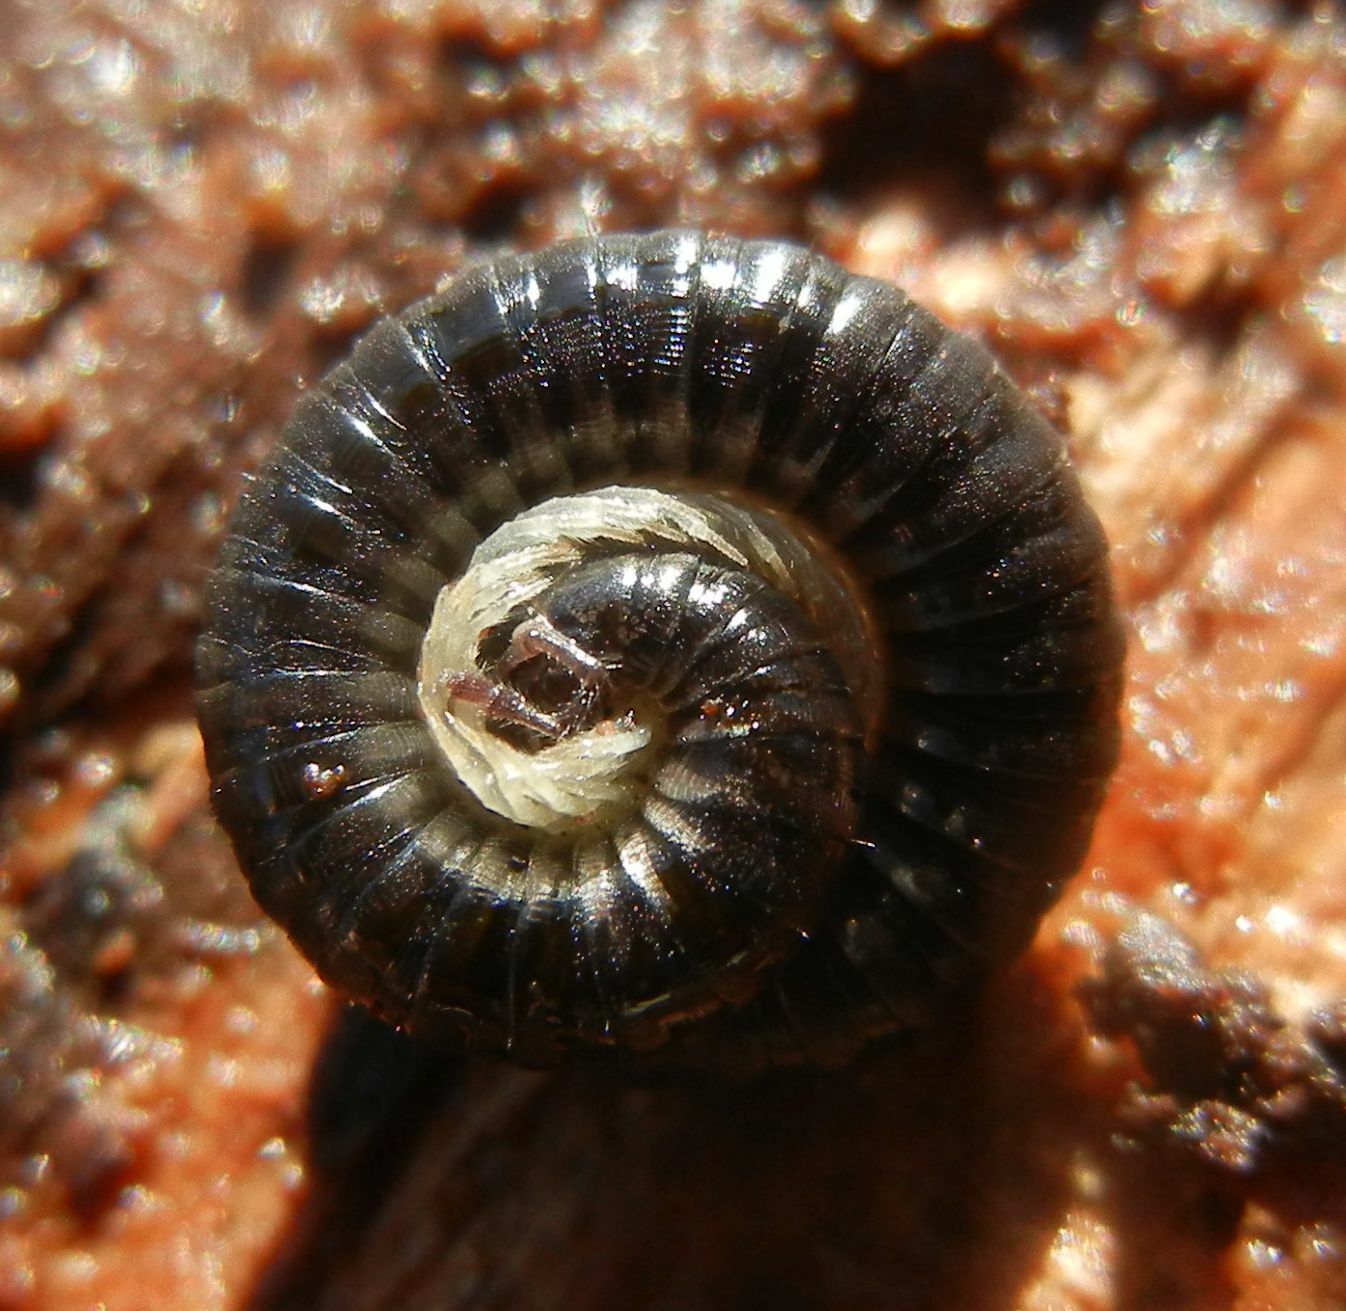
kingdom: Animalia
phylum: Arthropoda
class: Diplopoda
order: Julida
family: Julidae
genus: Tachypodoiulus
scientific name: Tachypodoiulus niger
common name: White-legged snake millipede
